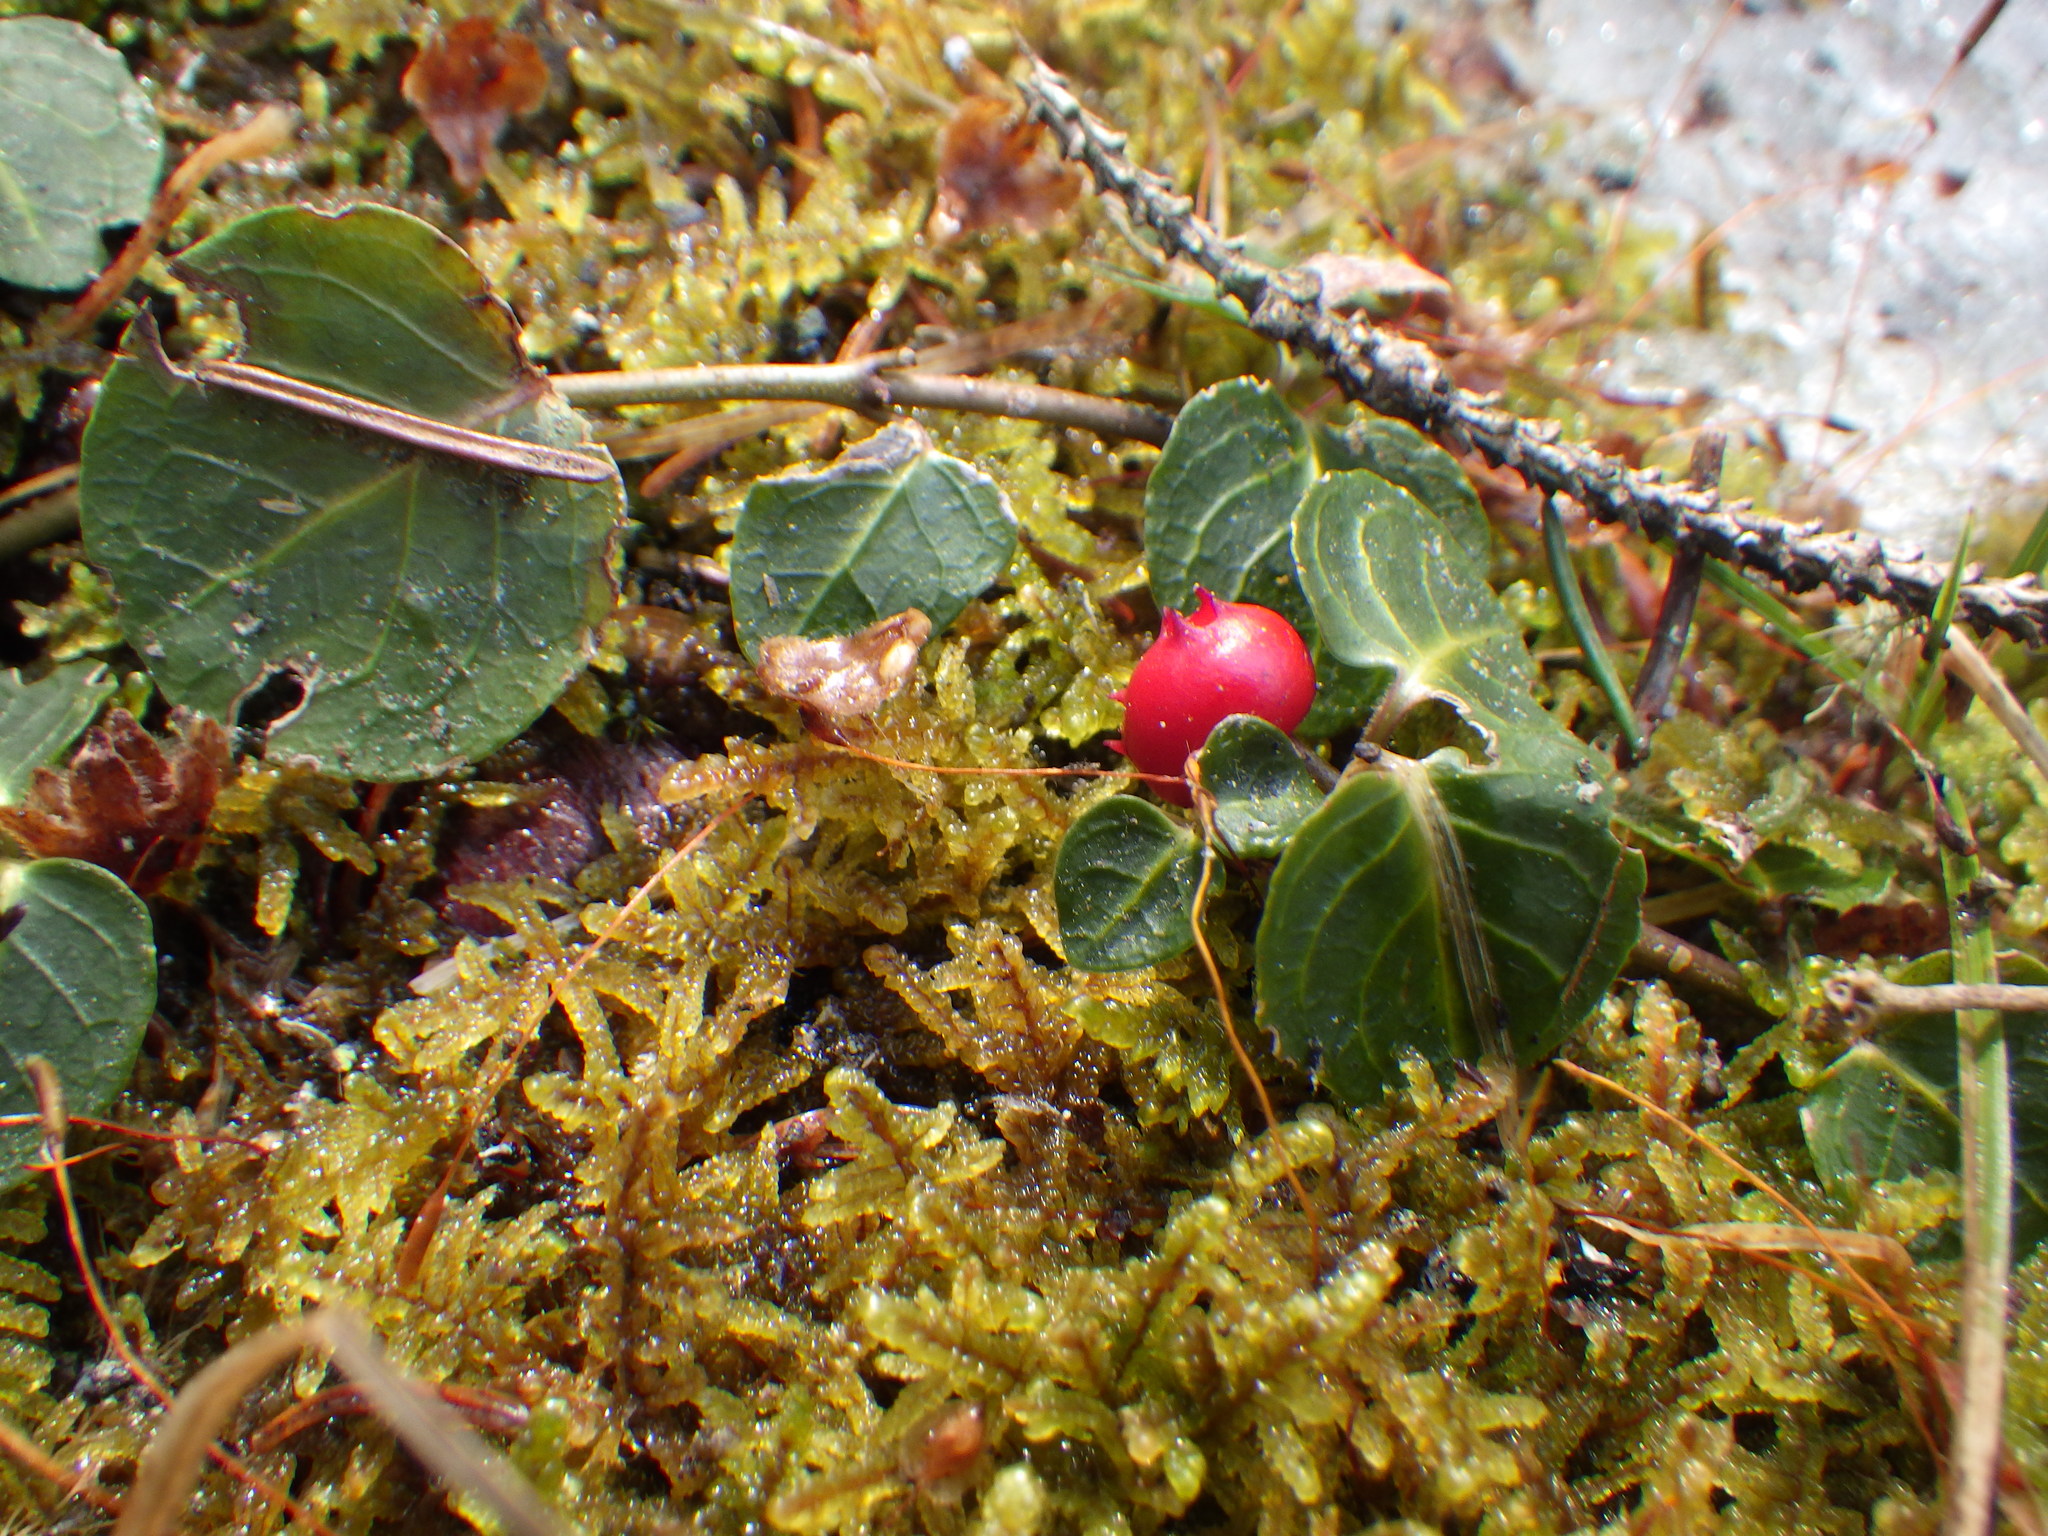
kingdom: Plantae
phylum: Tracheophyta
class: Magnoliopsida
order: Gentianales
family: Rubiaceae
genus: Mitchella
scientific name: Mitchella repens
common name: Partridge-berry
